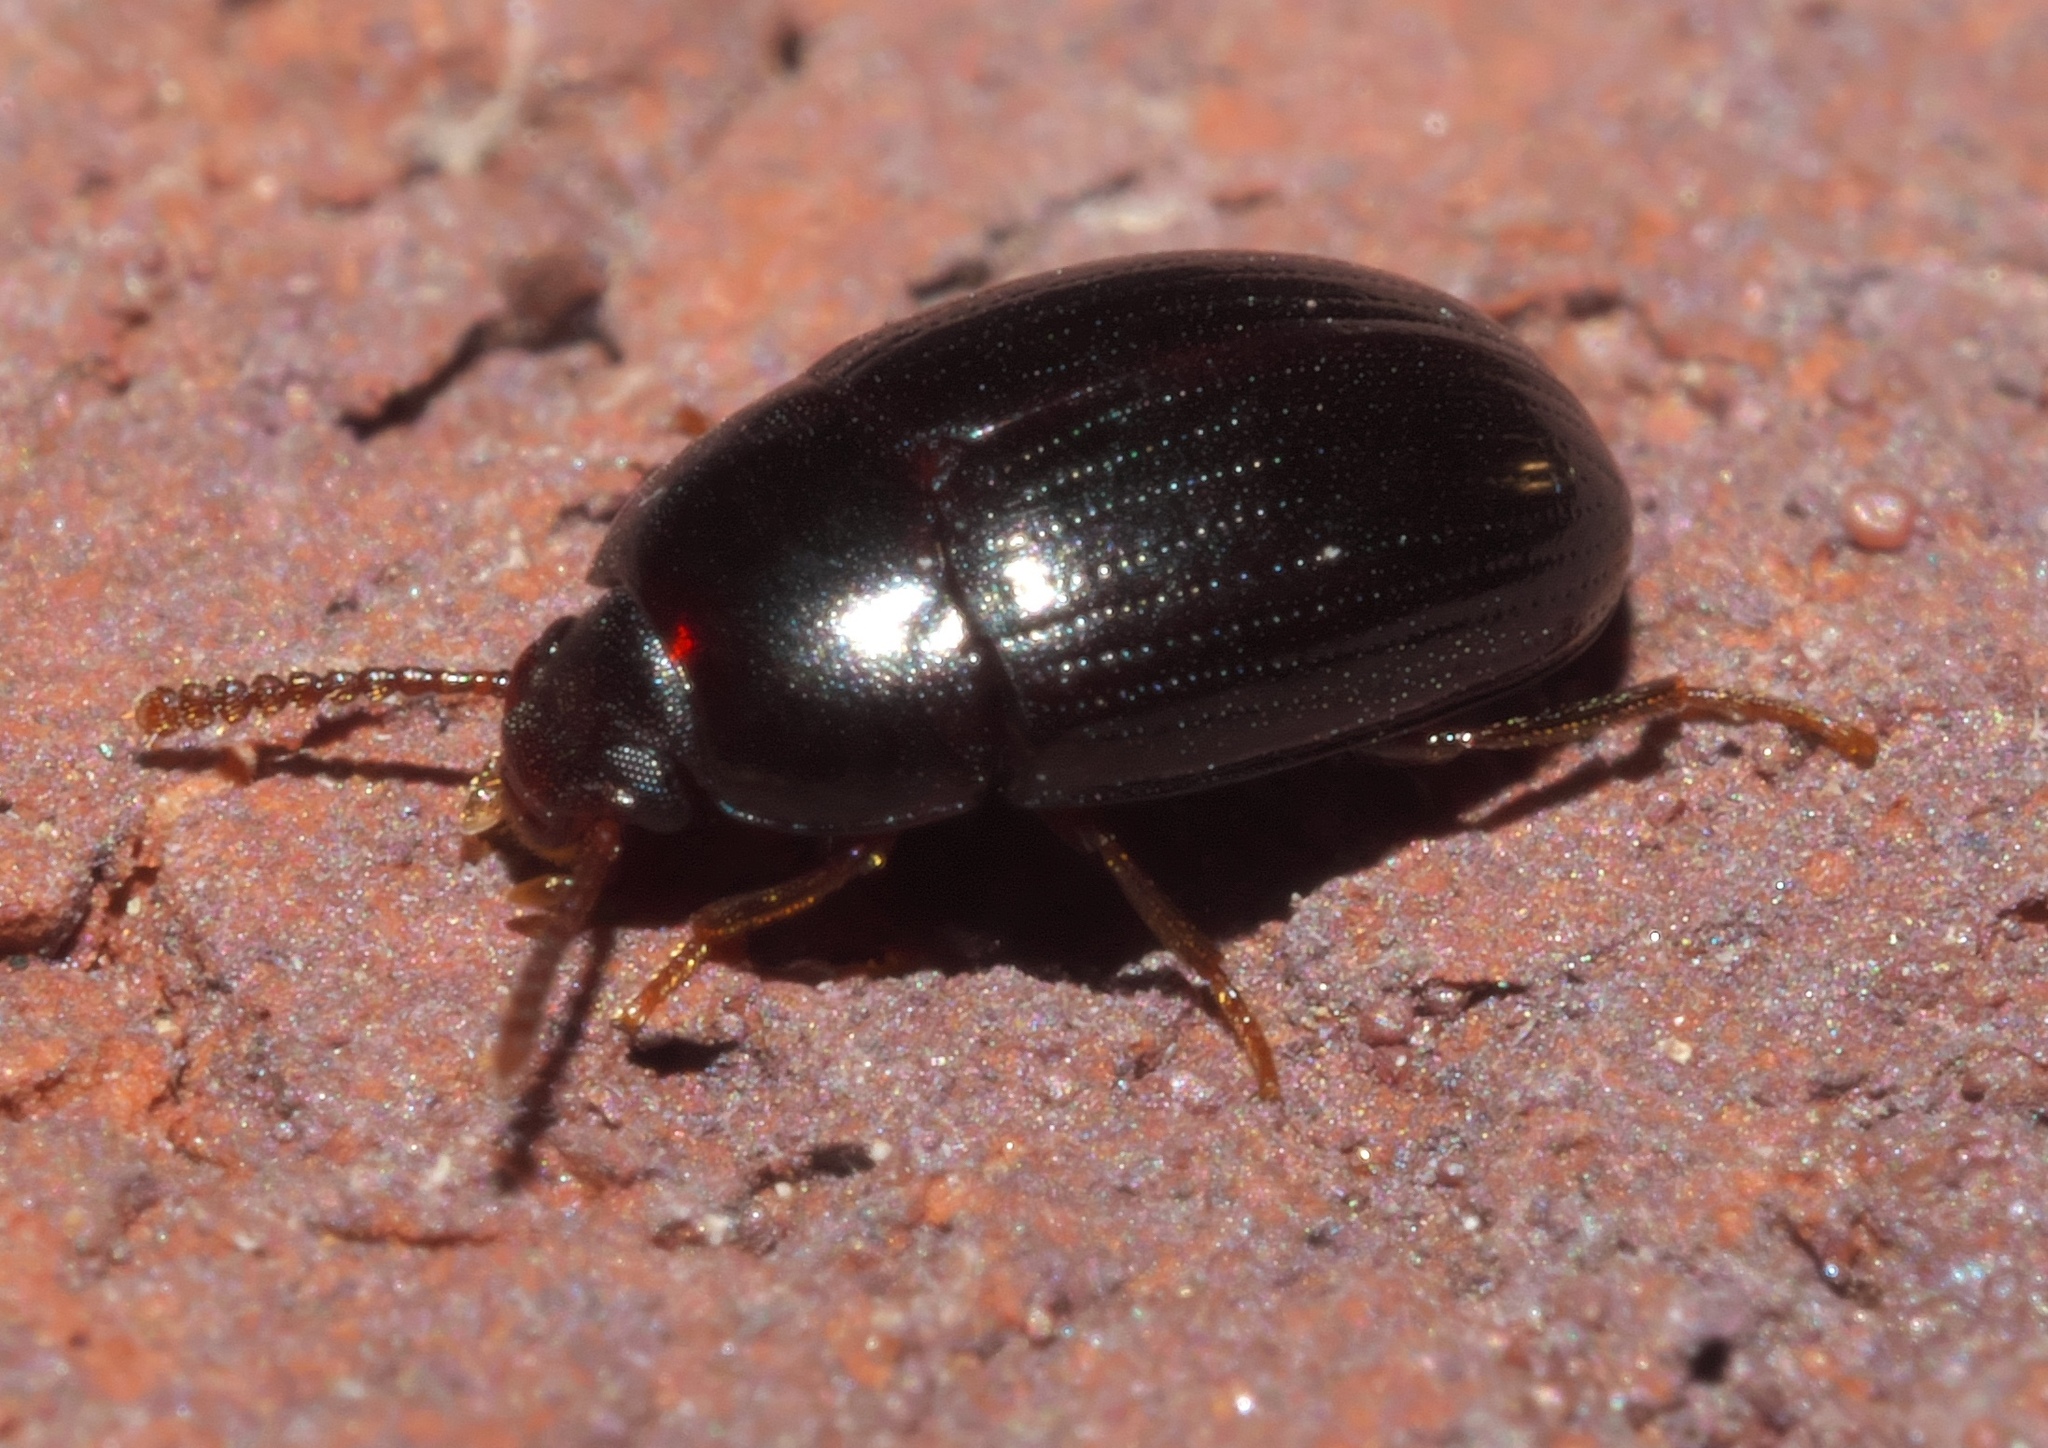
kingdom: Animalia
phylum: Arthropoda
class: Insecta
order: Coleoptera
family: Tenebrionidae
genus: Platydema
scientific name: Platydema micans
